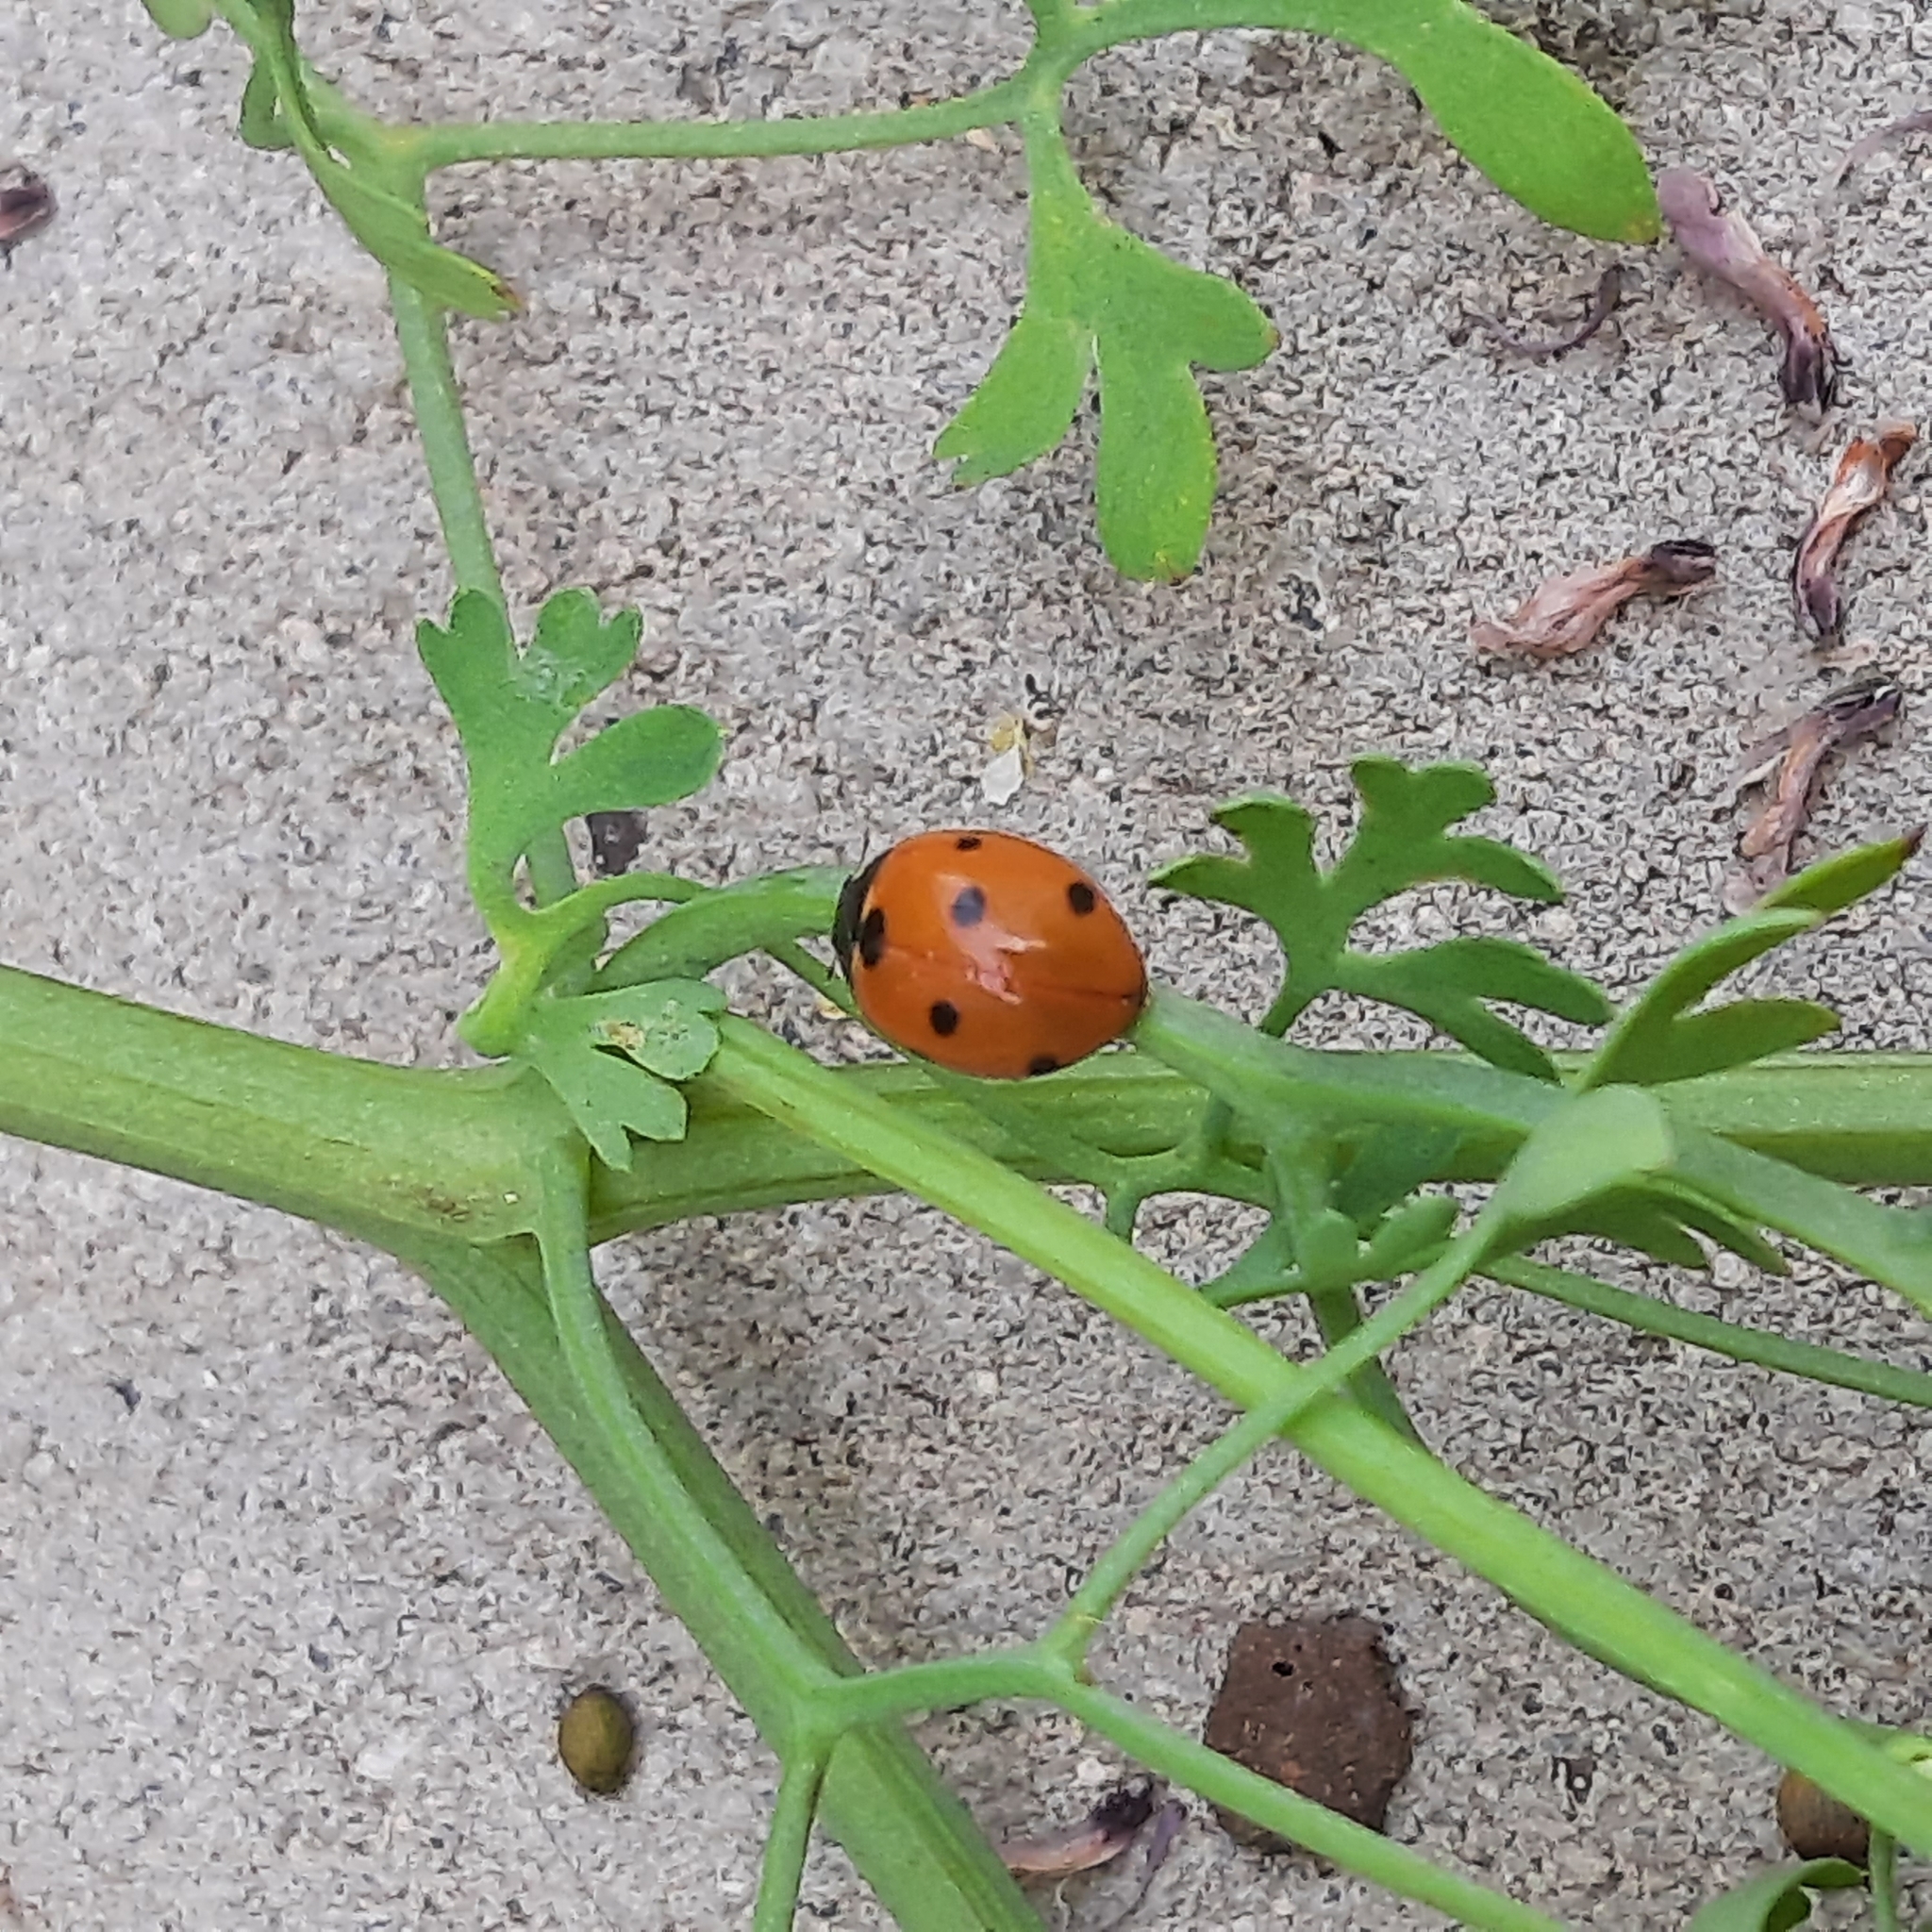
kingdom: Animalia
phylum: Arthropoda
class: Insecta
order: Coleoptera
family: Coccinellidae
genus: Coccinella
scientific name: Coccinella septempunctata
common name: Sevenspotted lady beetle
